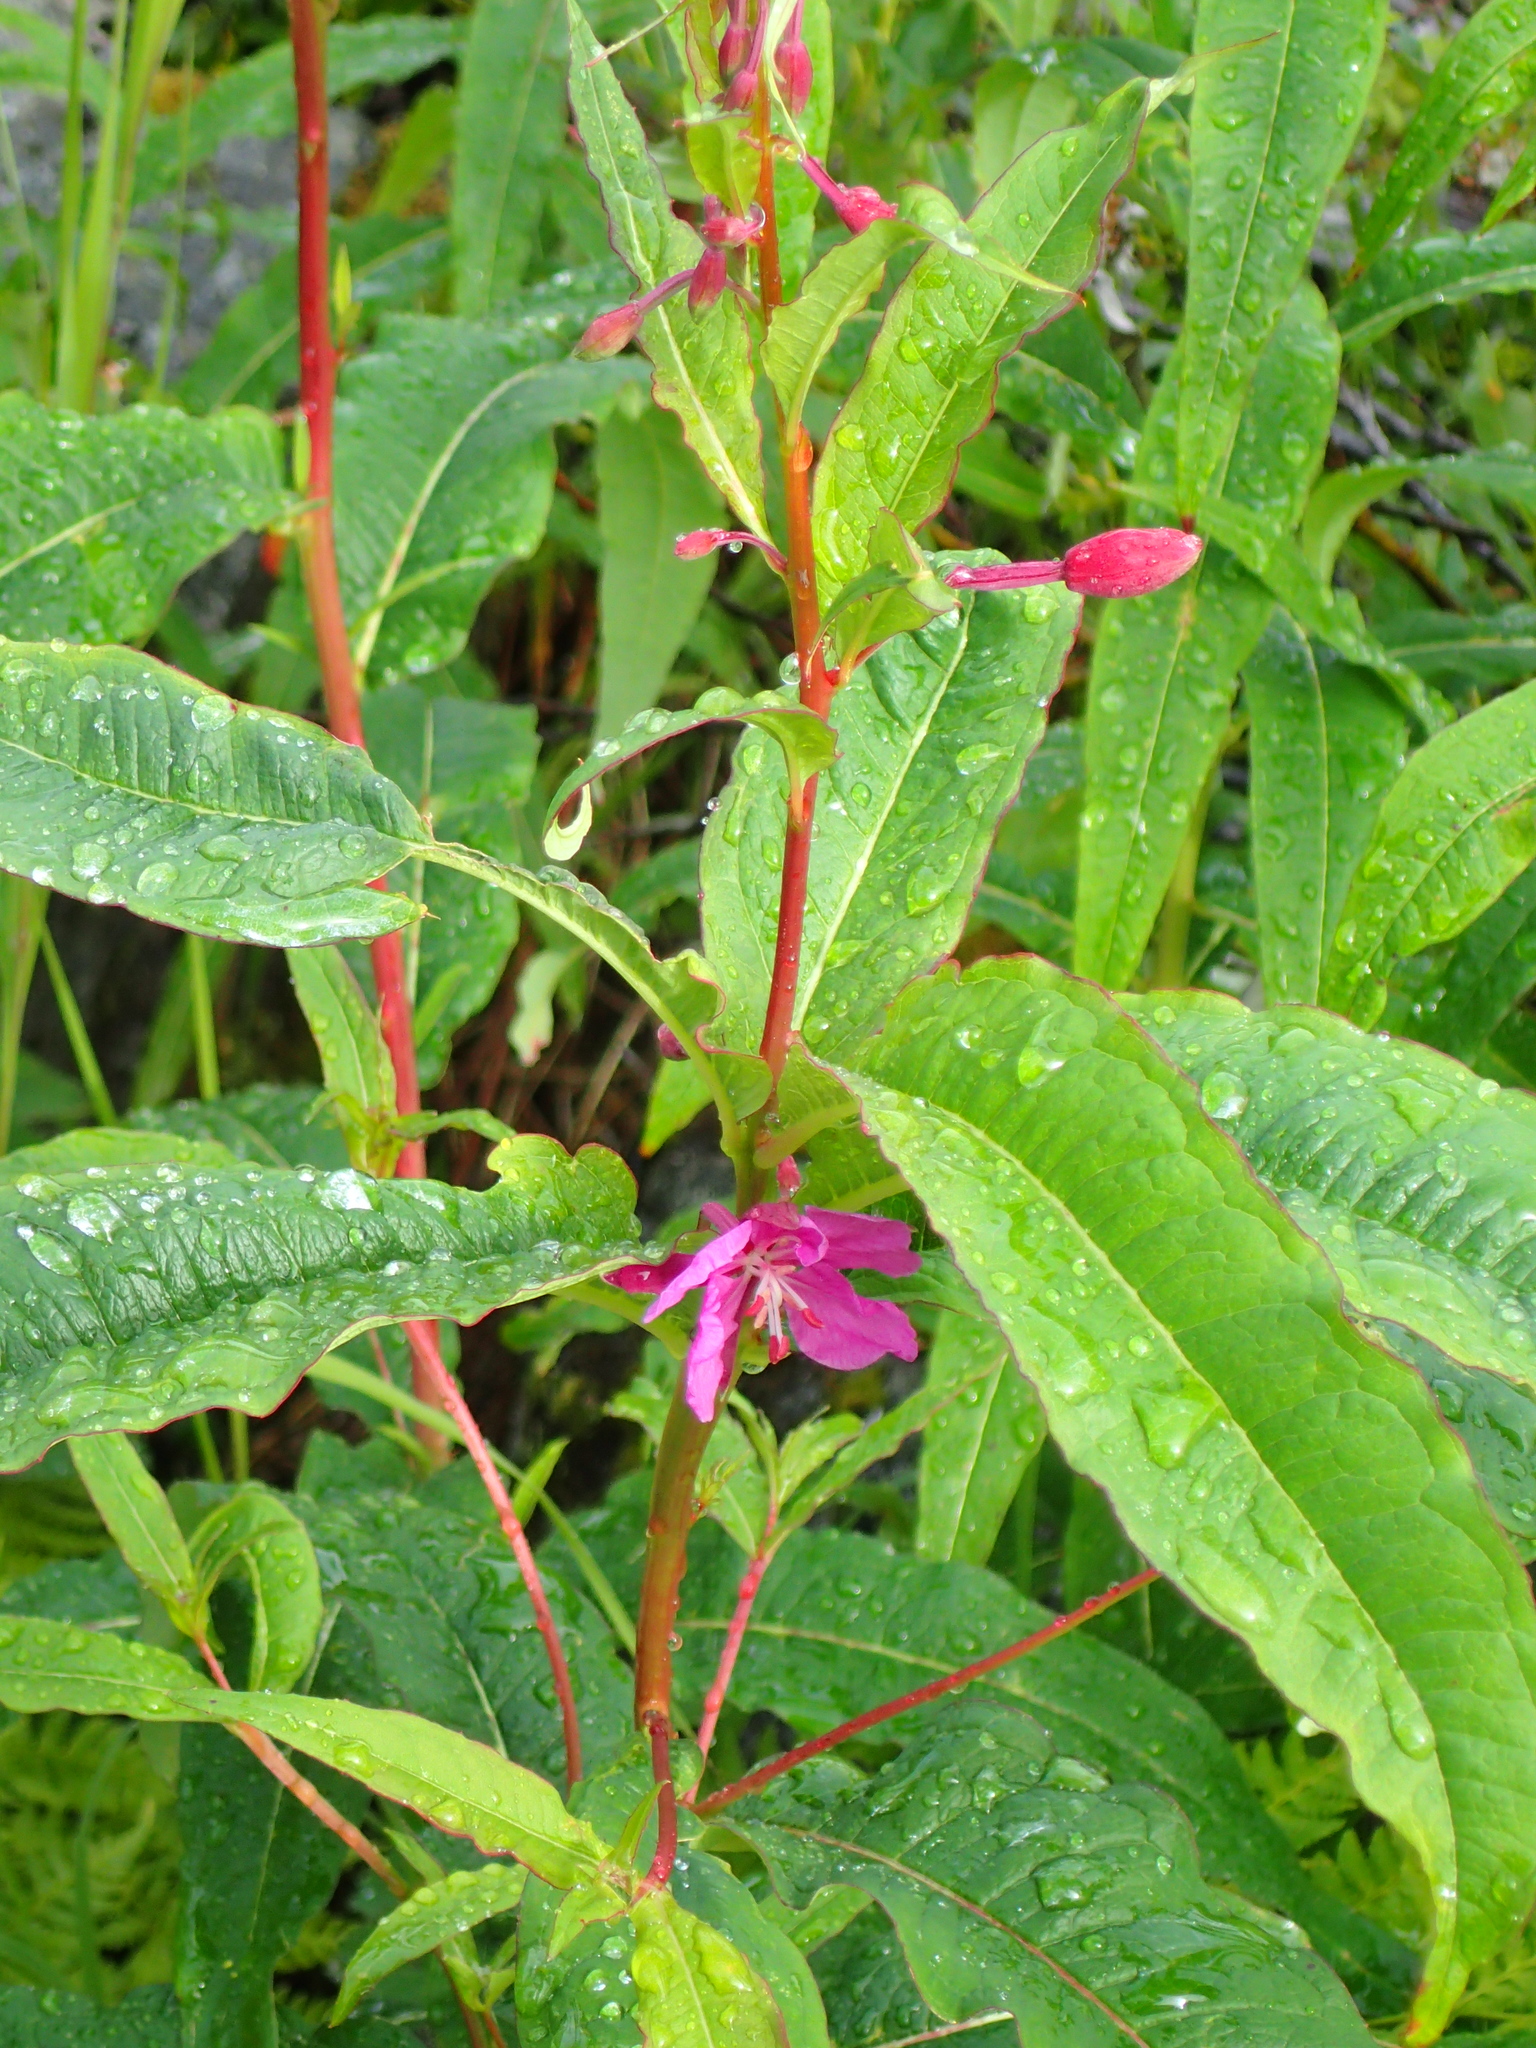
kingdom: Plantae
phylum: Tracheophyta
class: Magnoliopsida
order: Myrtales
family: Onagraceae
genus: Chamaenerion
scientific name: Chamaenerion angustifolium
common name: Fireweed
